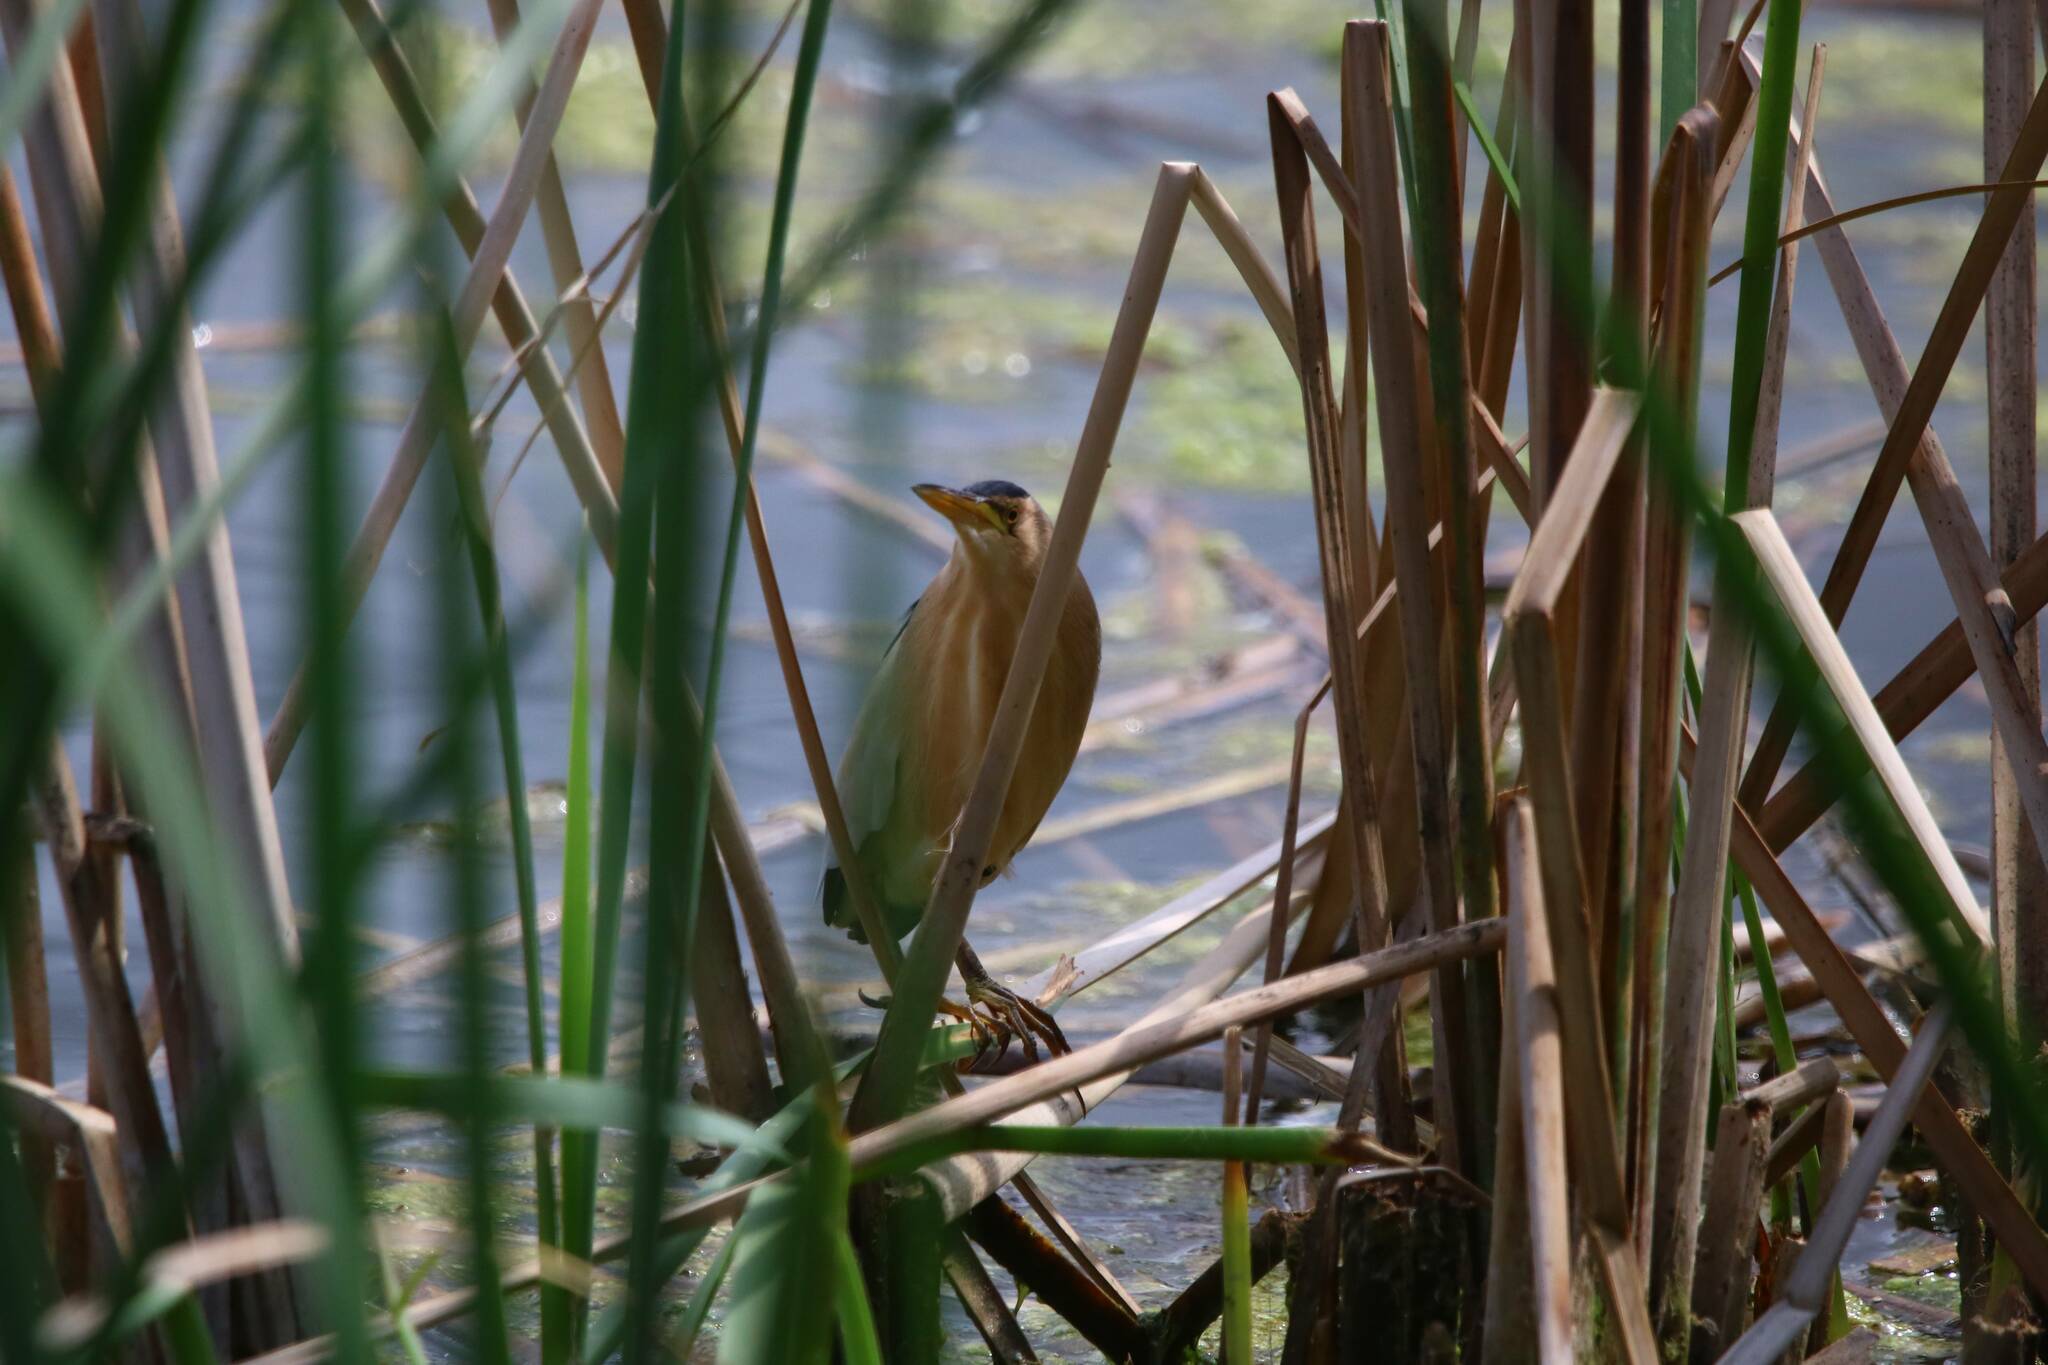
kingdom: Animalia
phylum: Chordata
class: Aves
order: Pelecaniformes
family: Ardeidae
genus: Ixobrychus
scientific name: Ixobrychus minutus
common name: Little bittern
